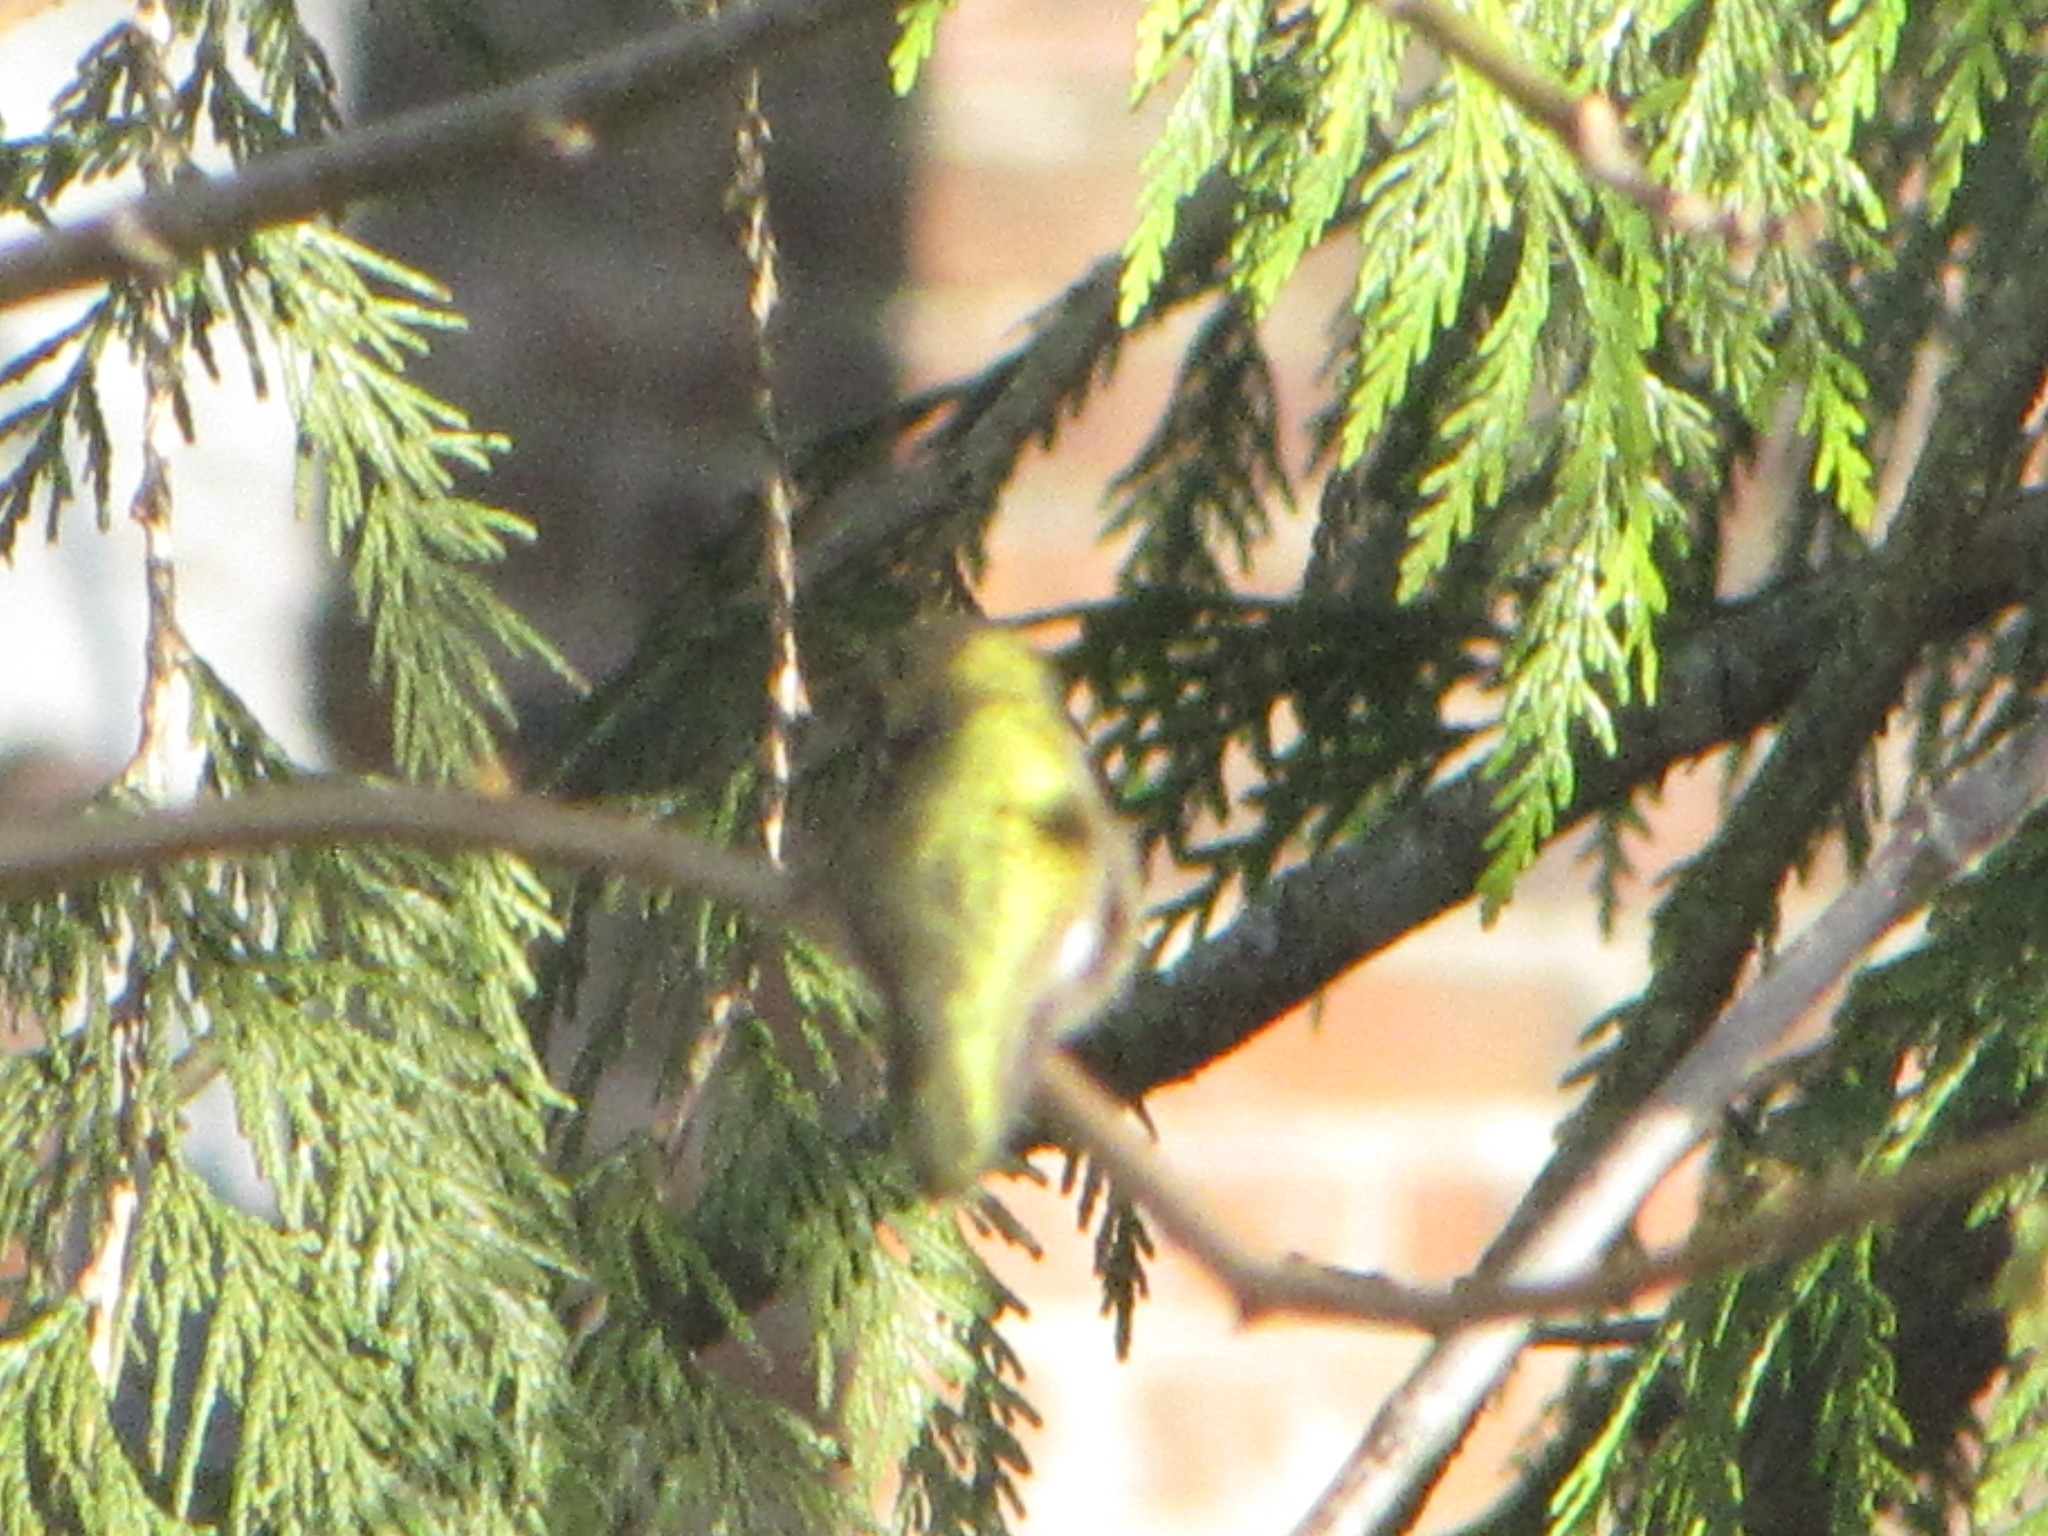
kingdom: Animalia
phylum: Chordata
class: Aves
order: Apodiformes
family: Trochilidae
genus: Calypte
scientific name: Calypte anna
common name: Anna's hummingbird
